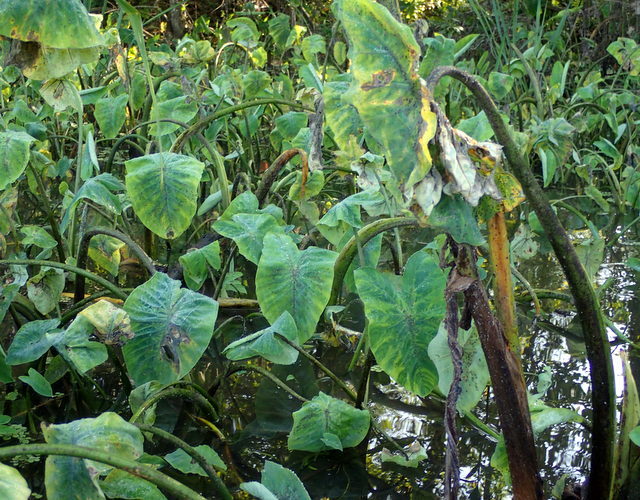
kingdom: Animalia
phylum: Arthropoda
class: Insecta
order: Hemiptera
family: Delphacidae
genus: Tarophagus
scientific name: Tarophagus colocasiae
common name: Taro planthopper
